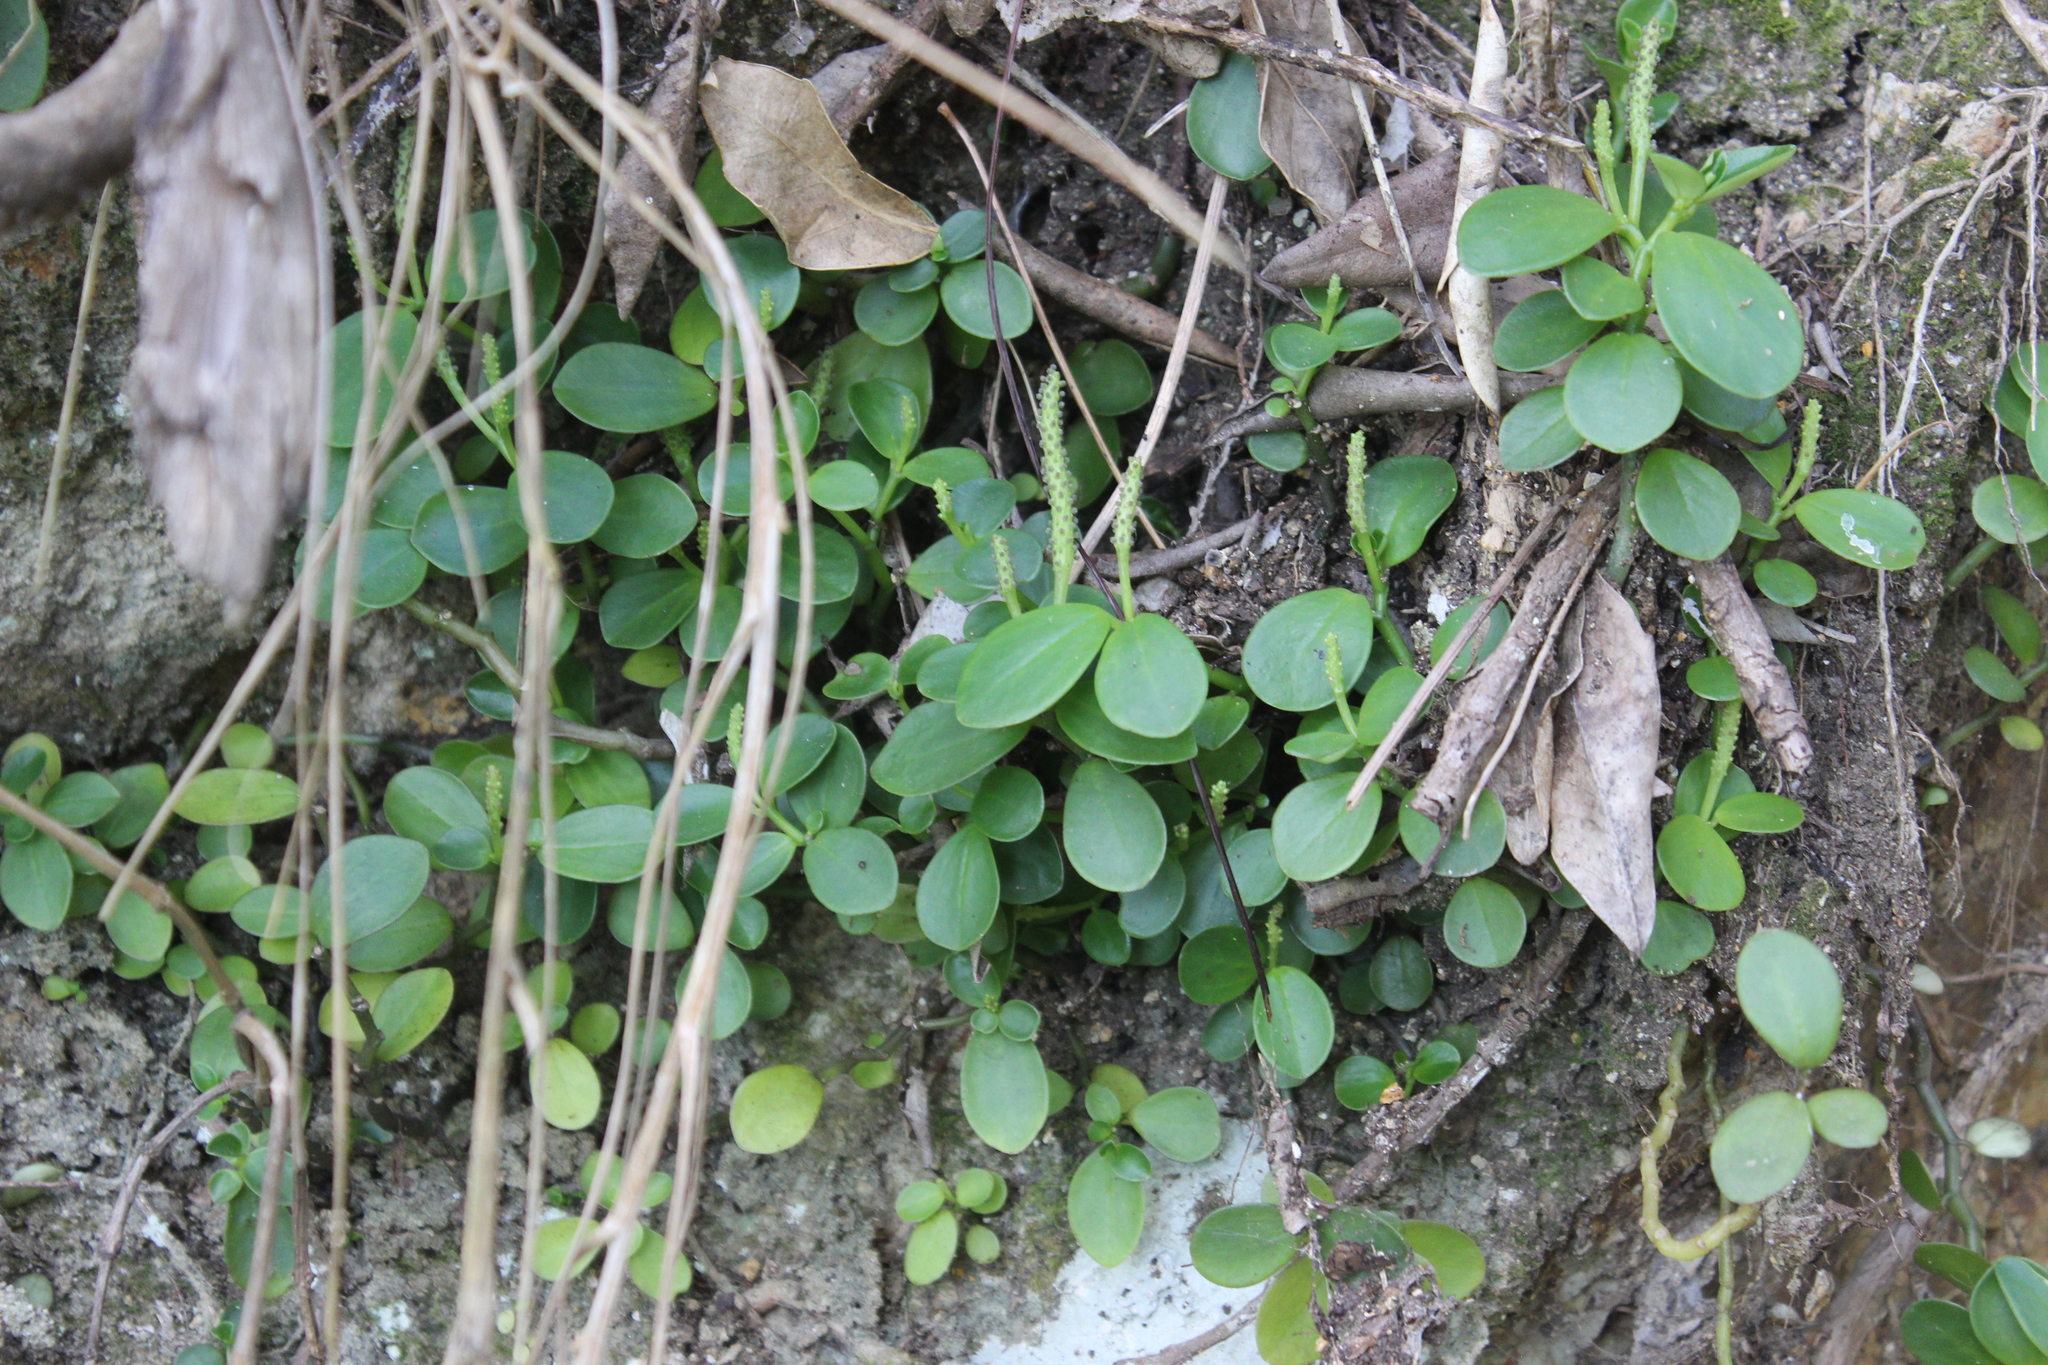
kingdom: Plantae
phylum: Tracheophyta
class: Magnoliopsida
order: Piperales
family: Piperaceae
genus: Peperomia
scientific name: Peperomia urvilleana
